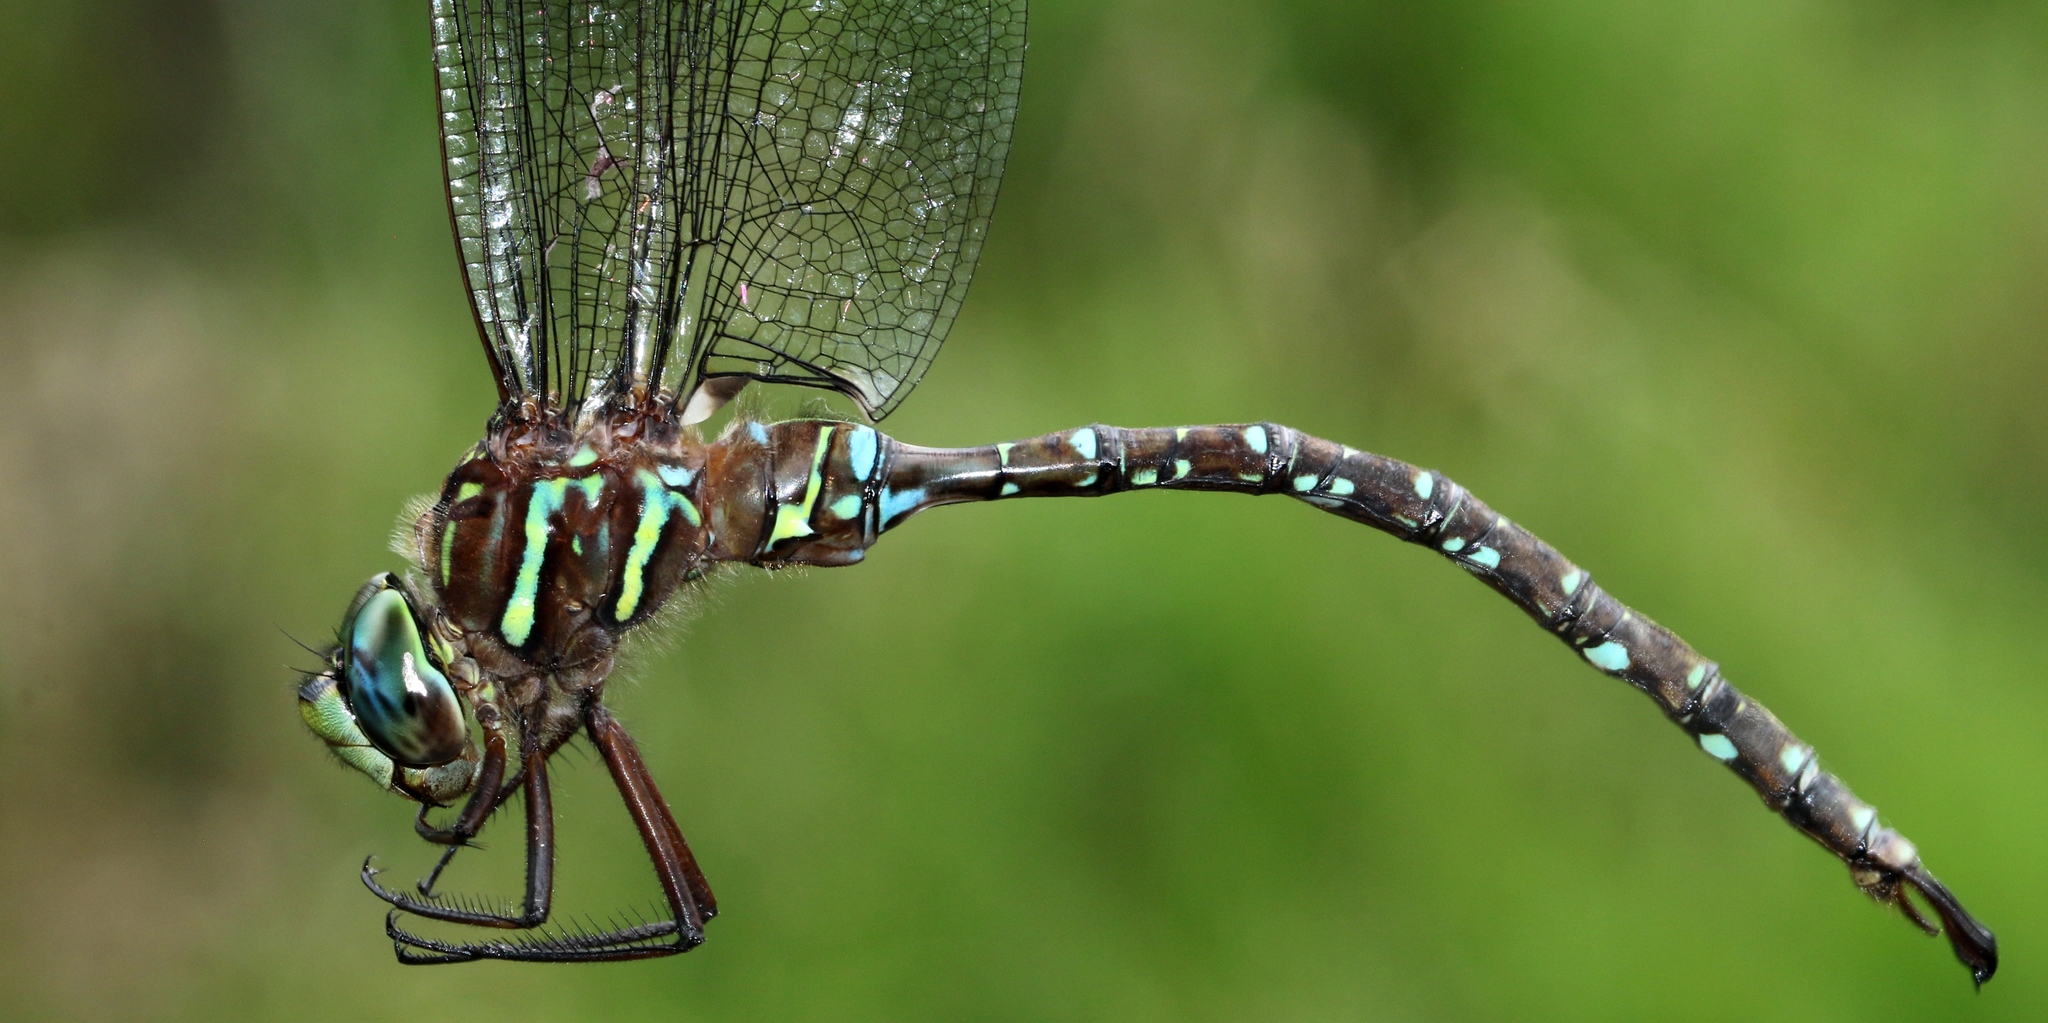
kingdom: Animalia
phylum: Arthropoda
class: Insecta
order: Odonata
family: Aeshnidae
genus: Aeshna
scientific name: Aeshna umbrosa
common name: Shadow darner
